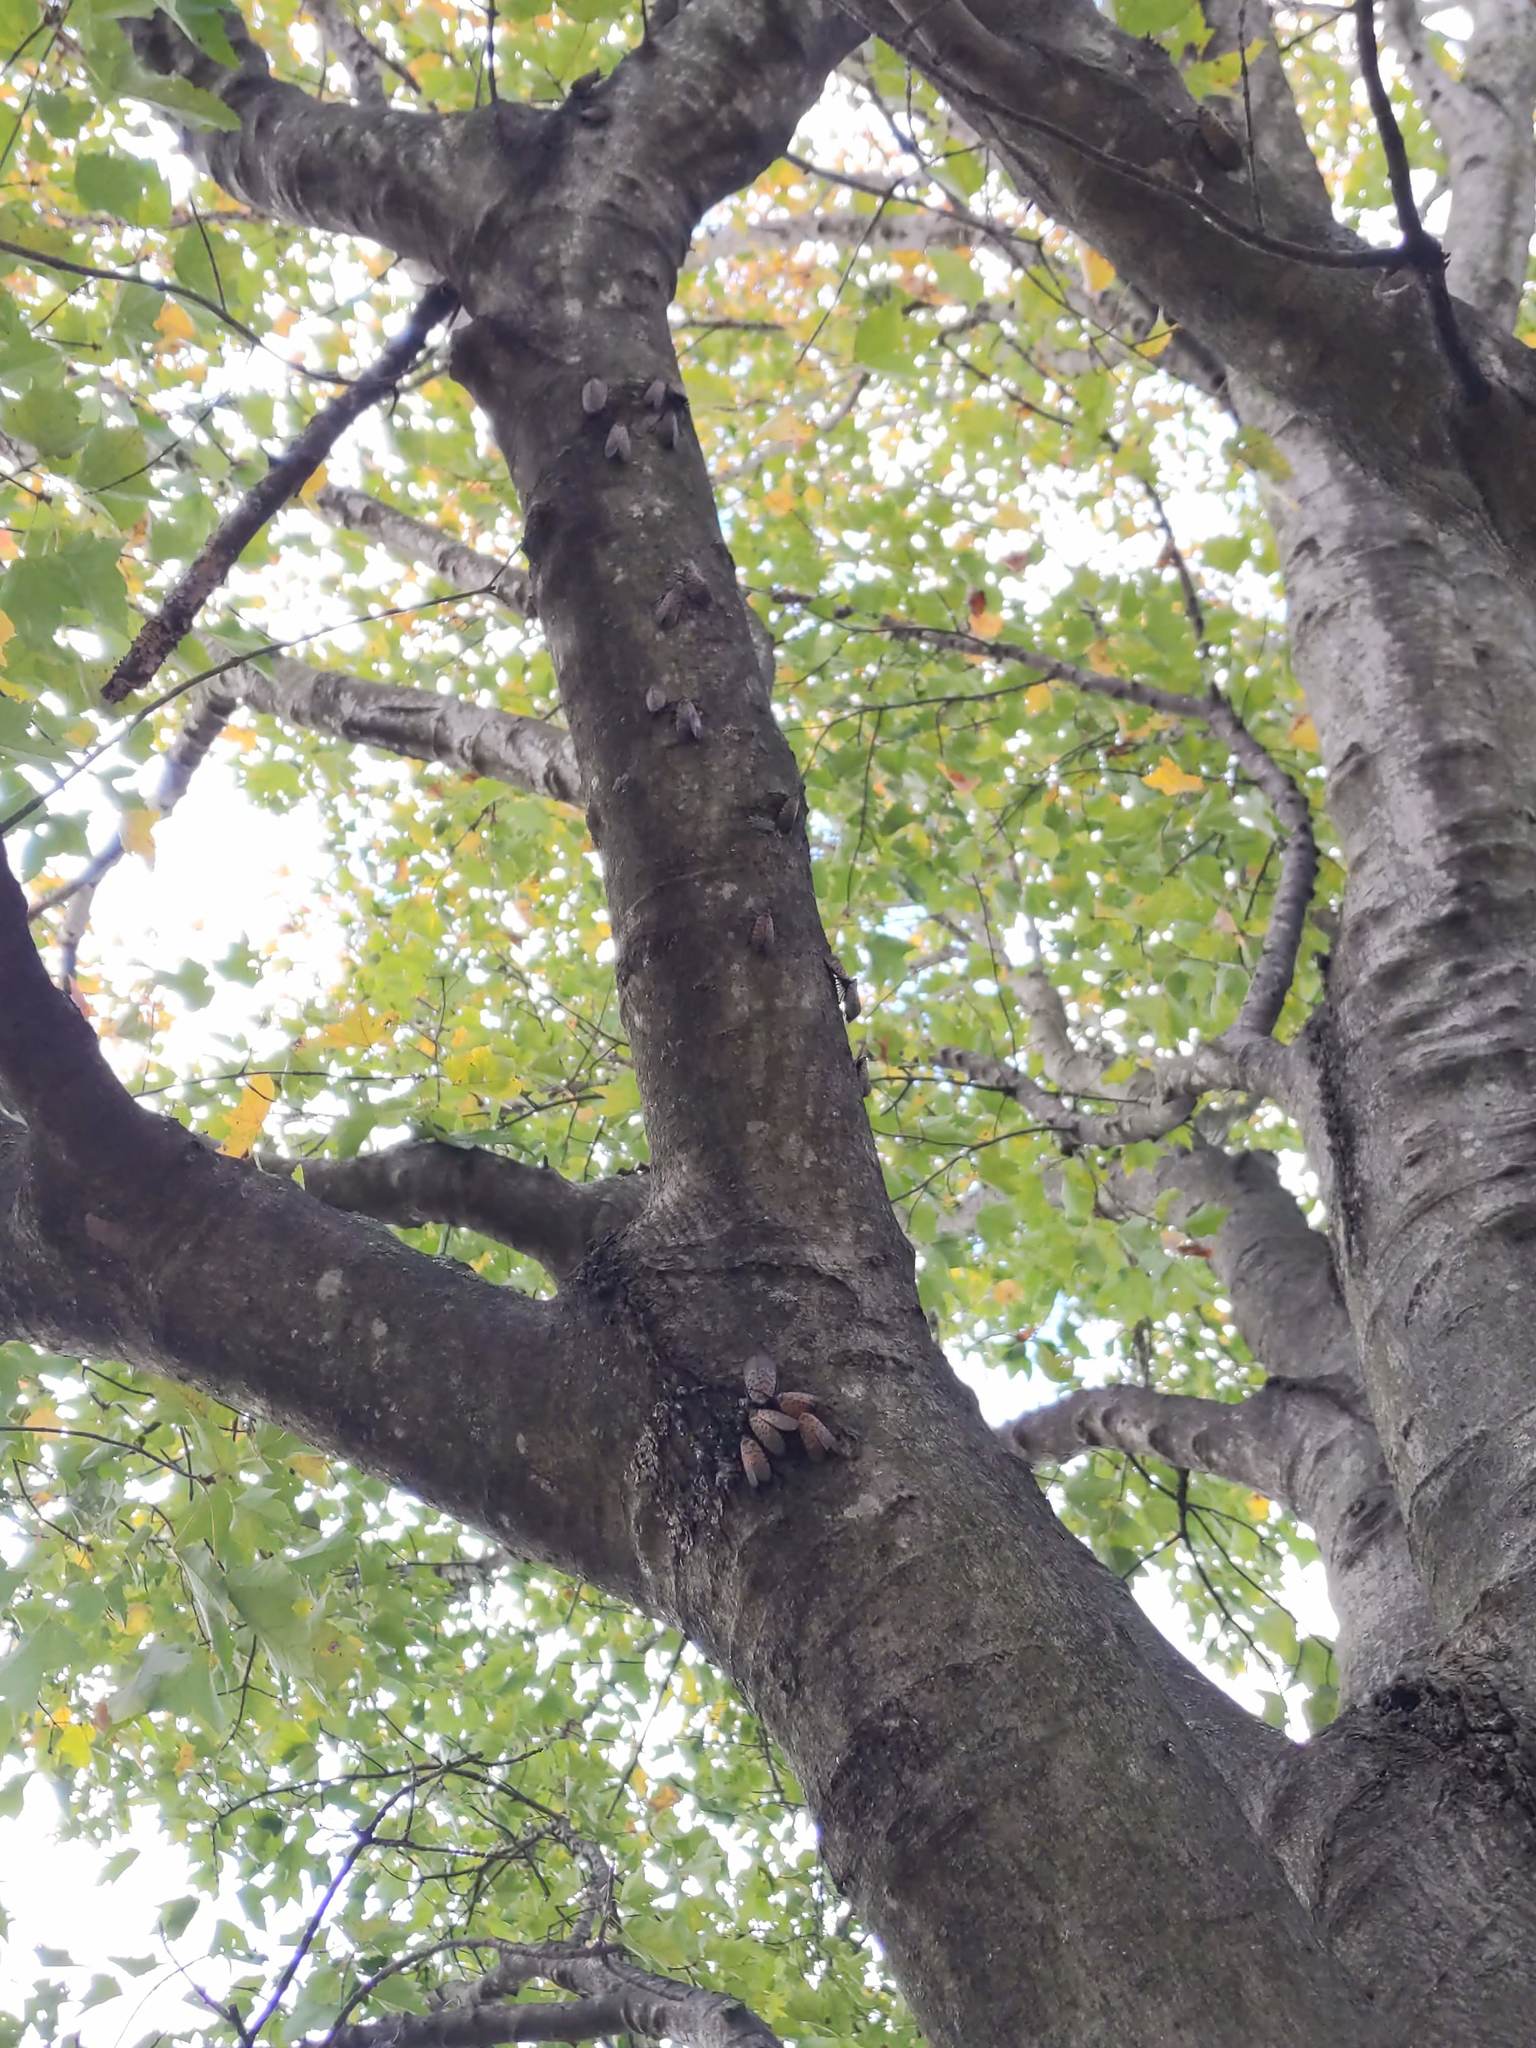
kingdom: Animalia
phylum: Arthropoda
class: Insecta
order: Hemiptera
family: Fulgoridae
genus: Lycorma
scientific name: Lycorma delicatula
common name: Spotted lanternfly
